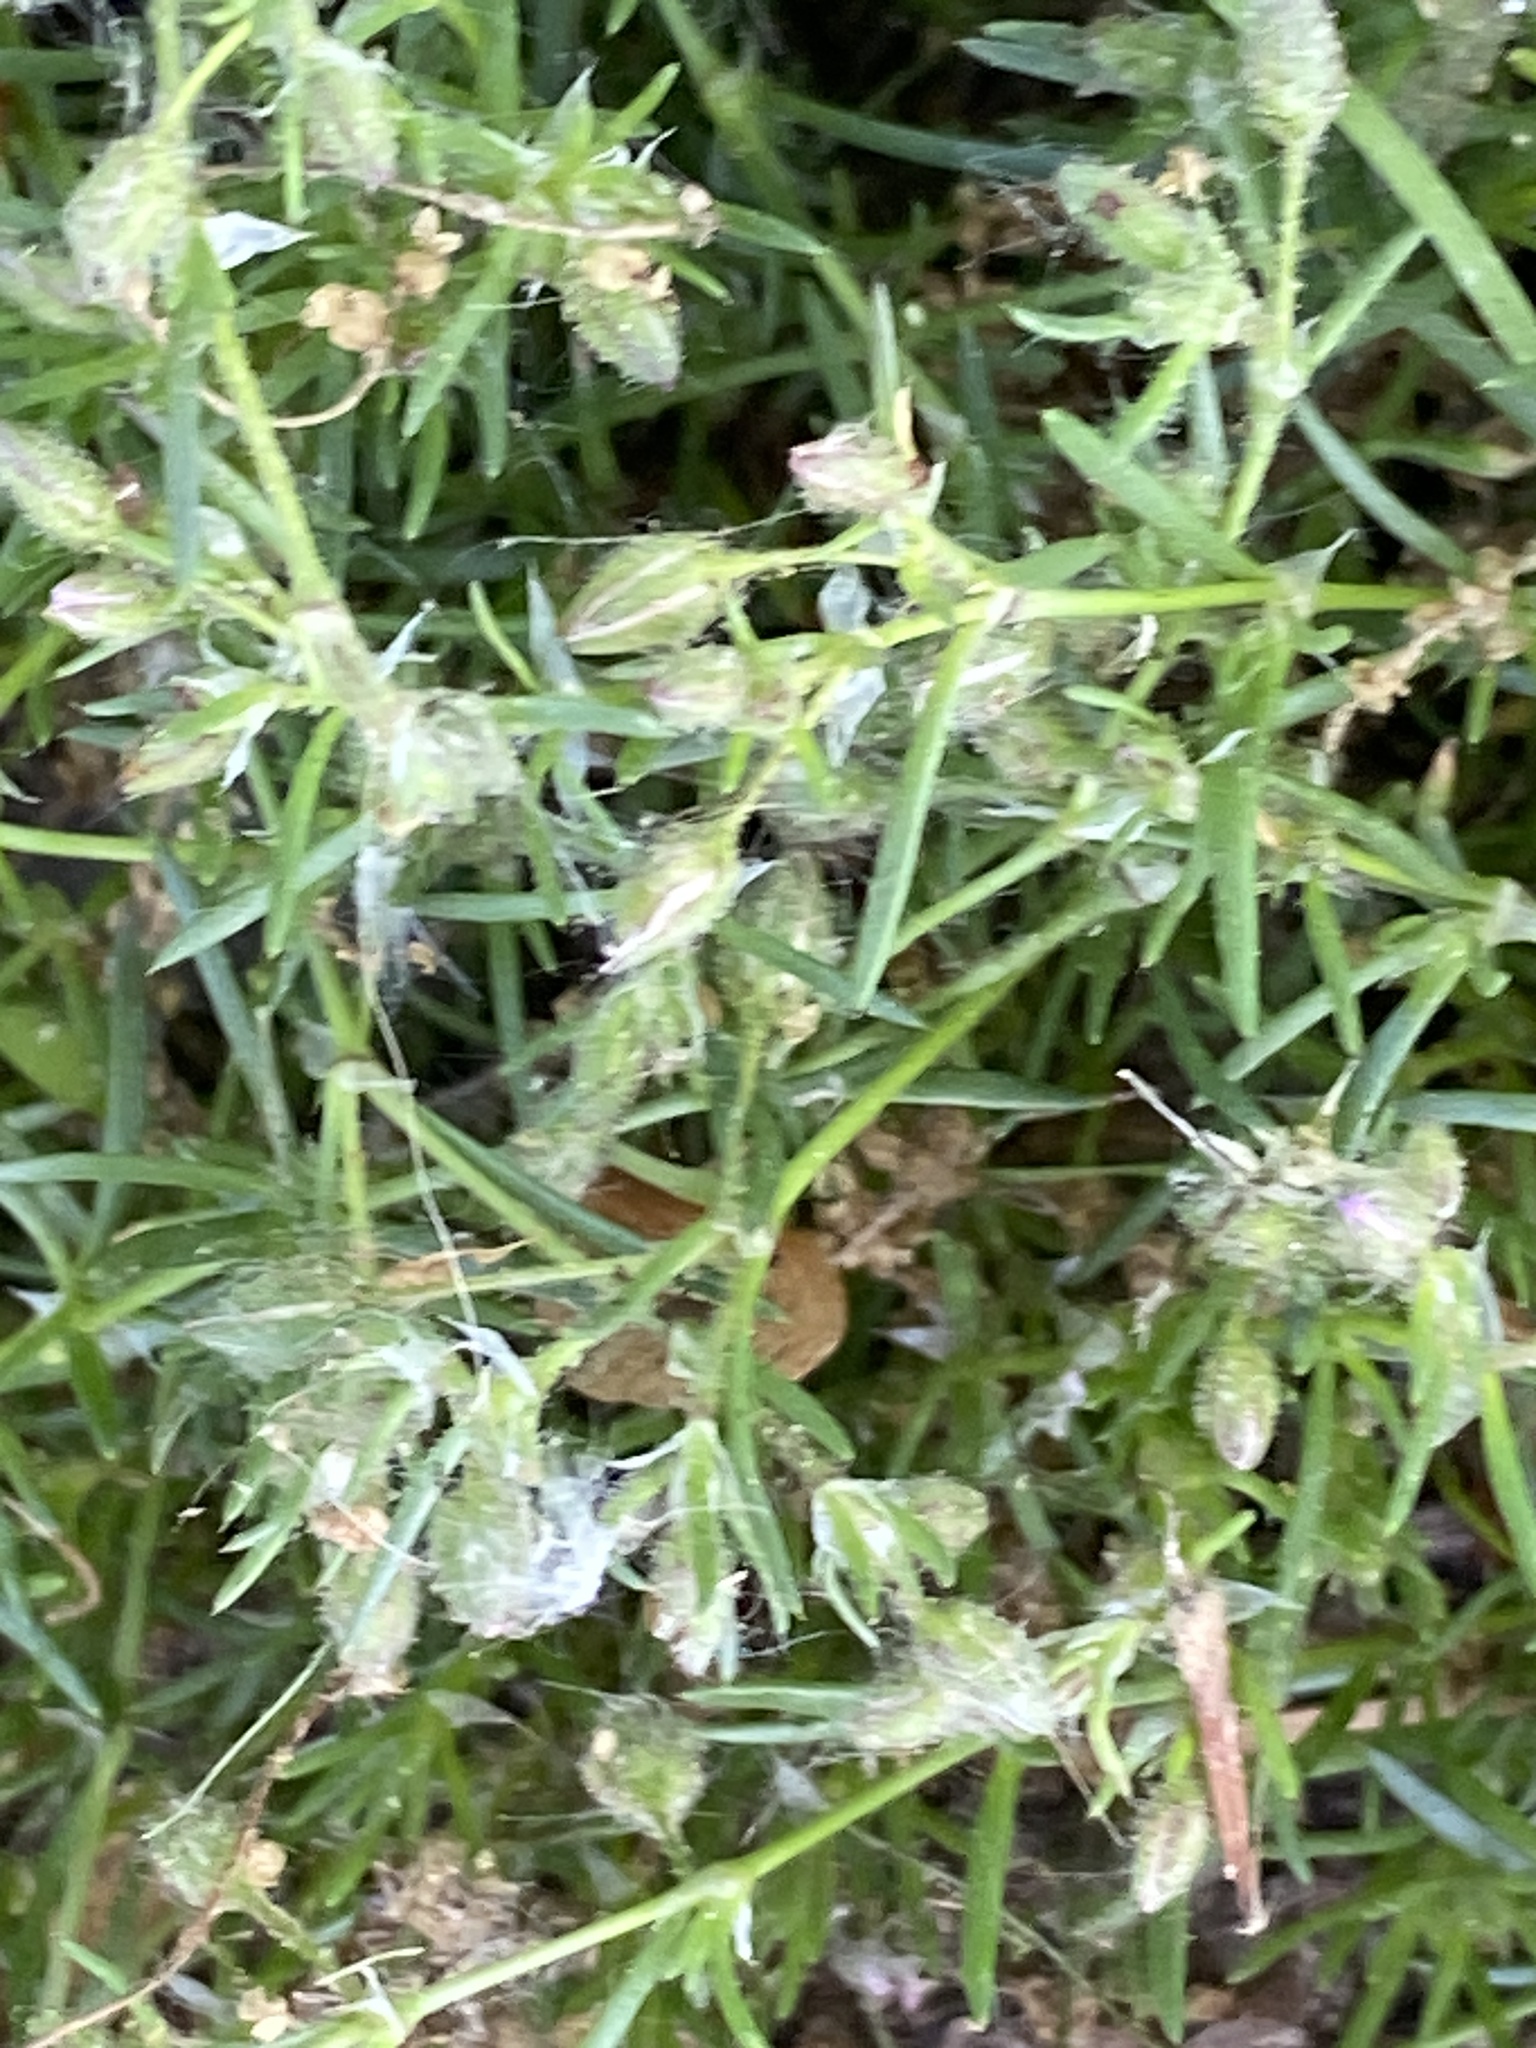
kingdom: Plantae
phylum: Tracheophyta
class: Magnoliopsida
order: Caryophyllales
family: Caryophyllaceae
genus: Spergularia
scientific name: Spergularia rubra
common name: Red sand-spurrey
